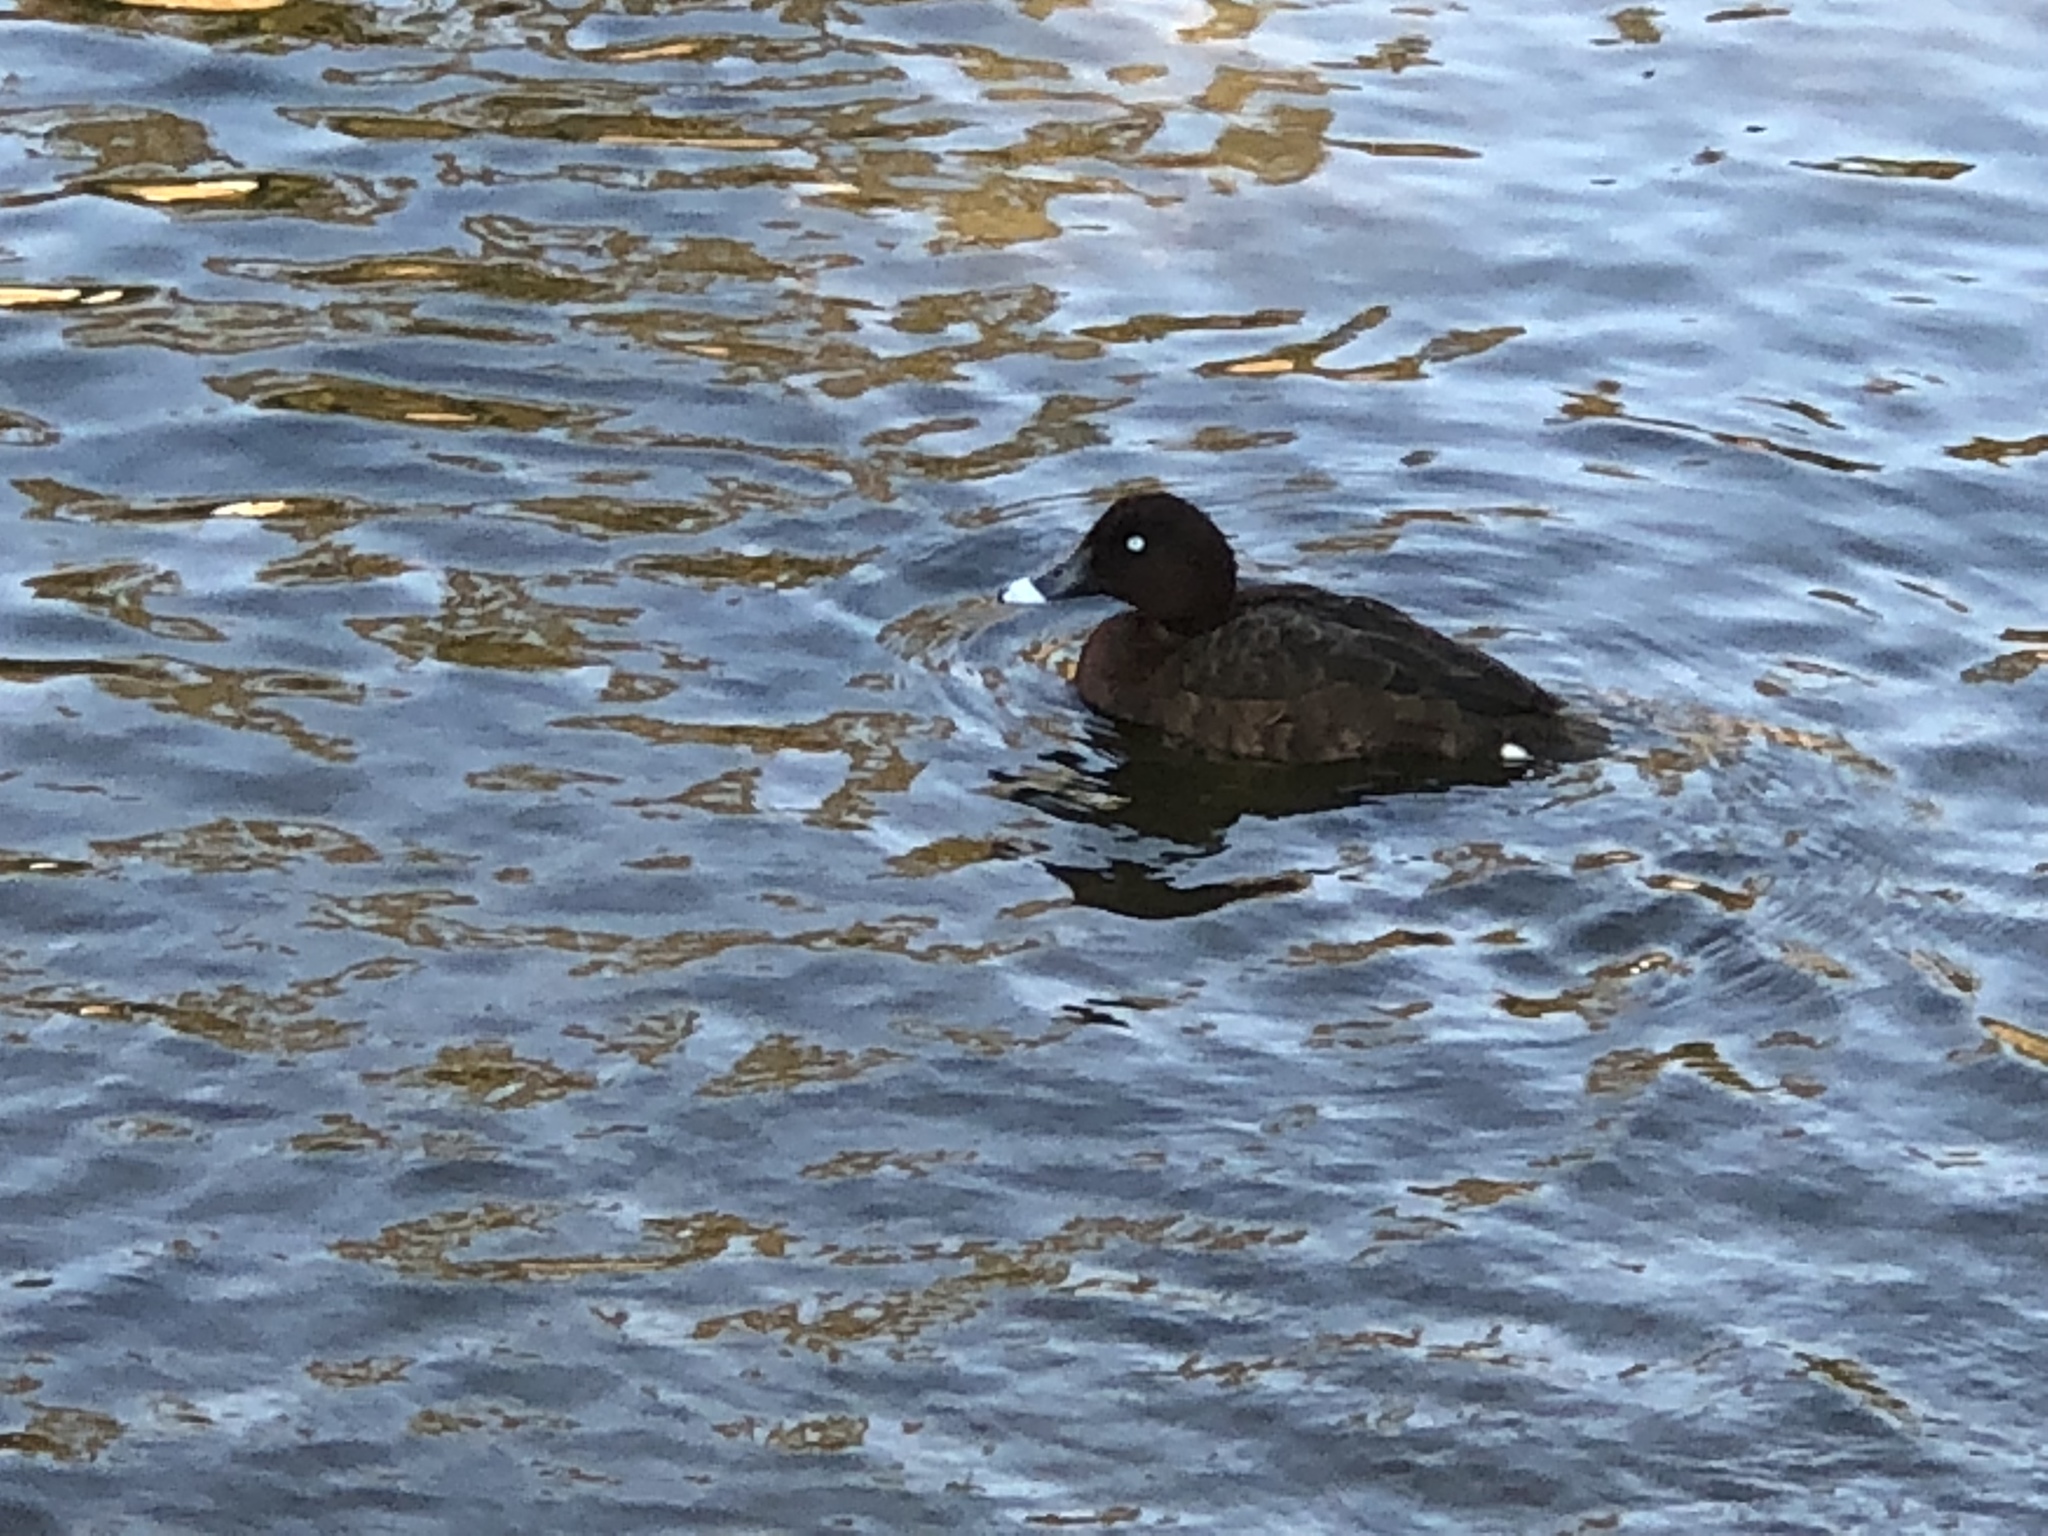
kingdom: Animalia
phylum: Chordata
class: Aves
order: Anseriformes
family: Anatidae
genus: Aythya
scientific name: Aythya australis
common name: Hardhead
